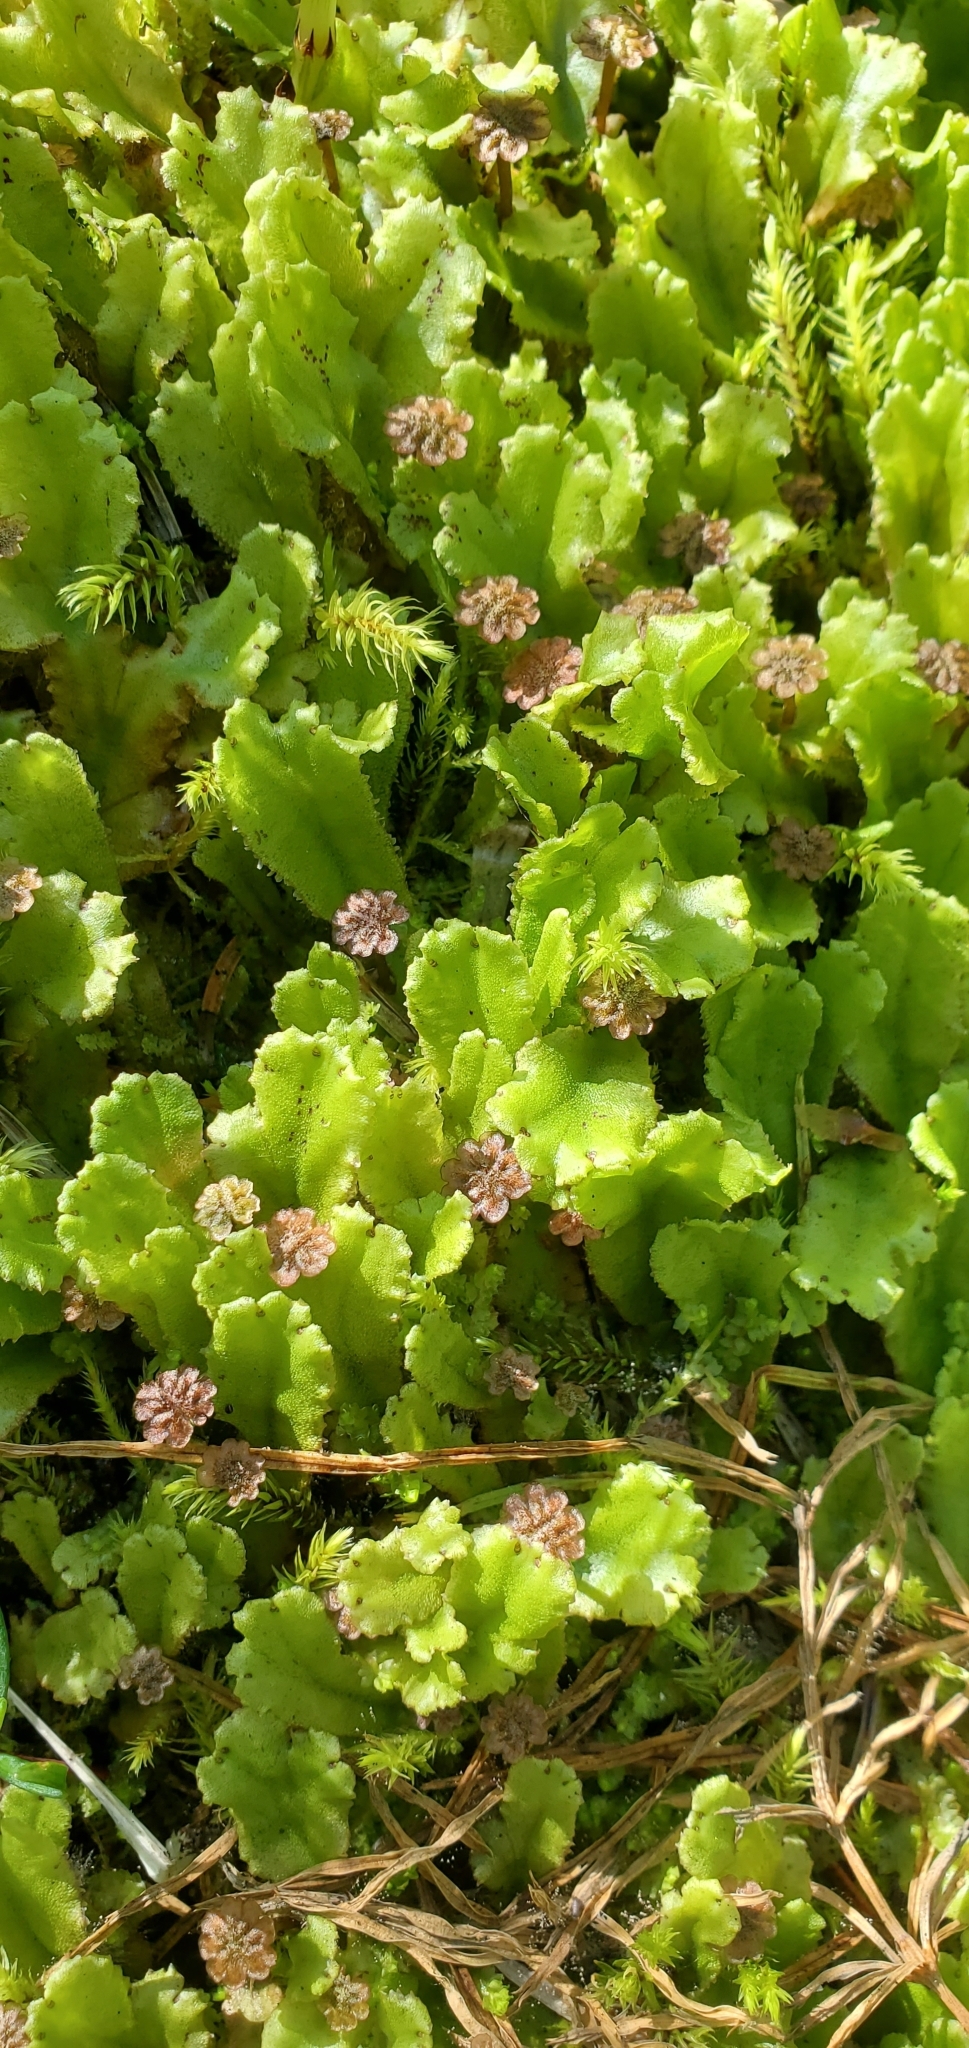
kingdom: Plantae
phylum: Marchantiophyta
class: Marchantiopsida
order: Marchantiales
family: Marchantiaceae
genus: Marchantia
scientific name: Marchantia polymorpha
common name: Common liverwort
